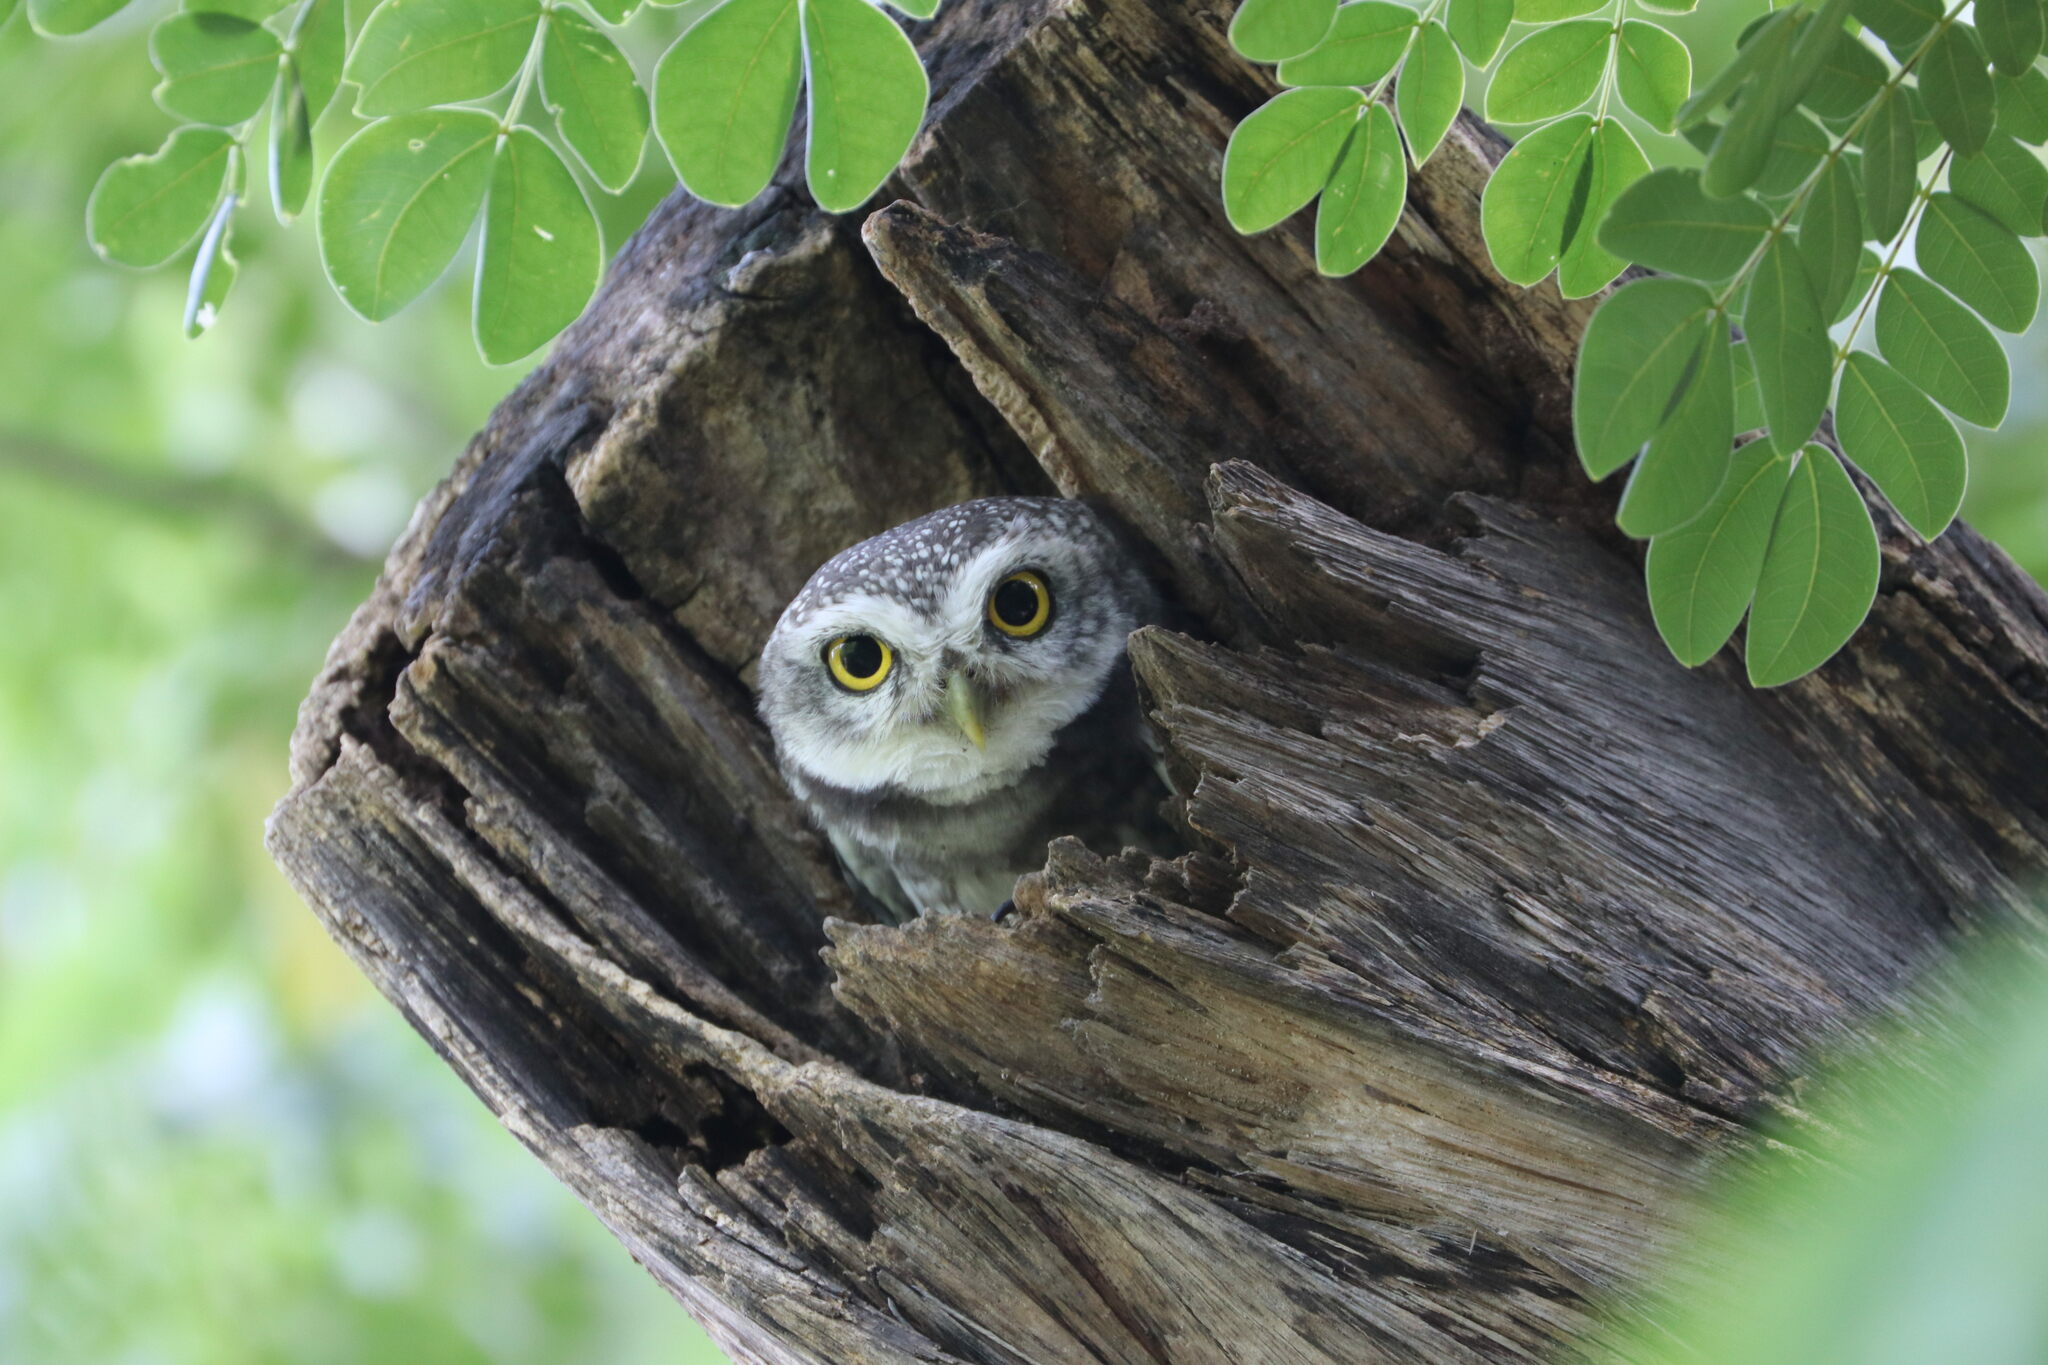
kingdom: Animalia
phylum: Chordata
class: Aves
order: Strigiformes
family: Strigidae
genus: Athene
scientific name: Athene brama
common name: Spotted owlet
